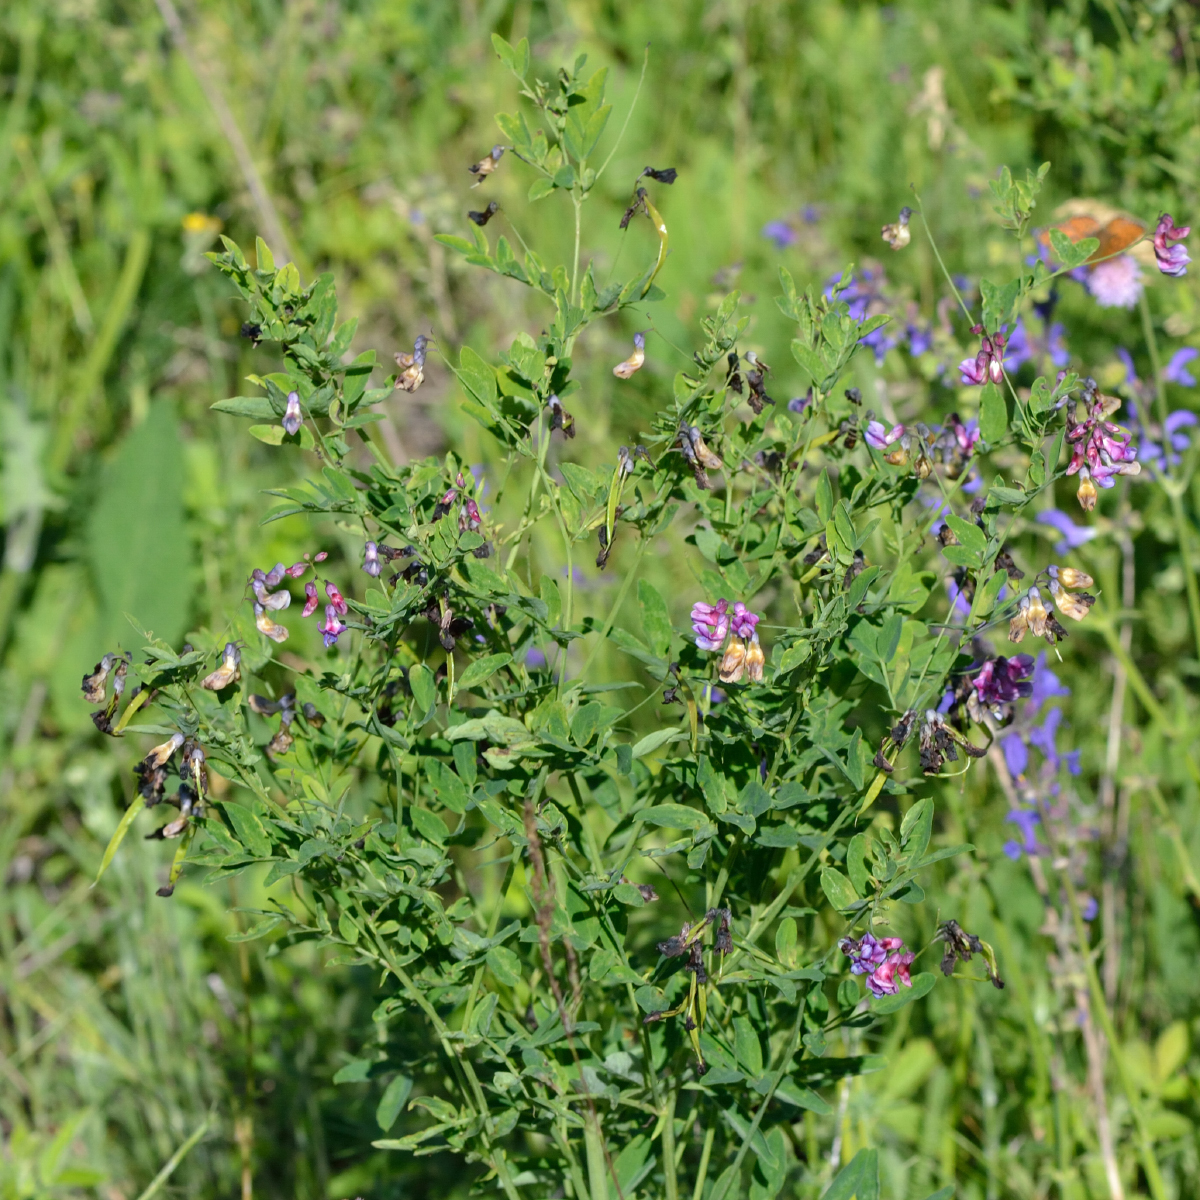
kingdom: Plantae
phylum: Tracheophyta
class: Magnoliopsida
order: Fabales
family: Fabaceae
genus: Lathyrus
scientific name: Lathyrus niger
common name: Black pea
